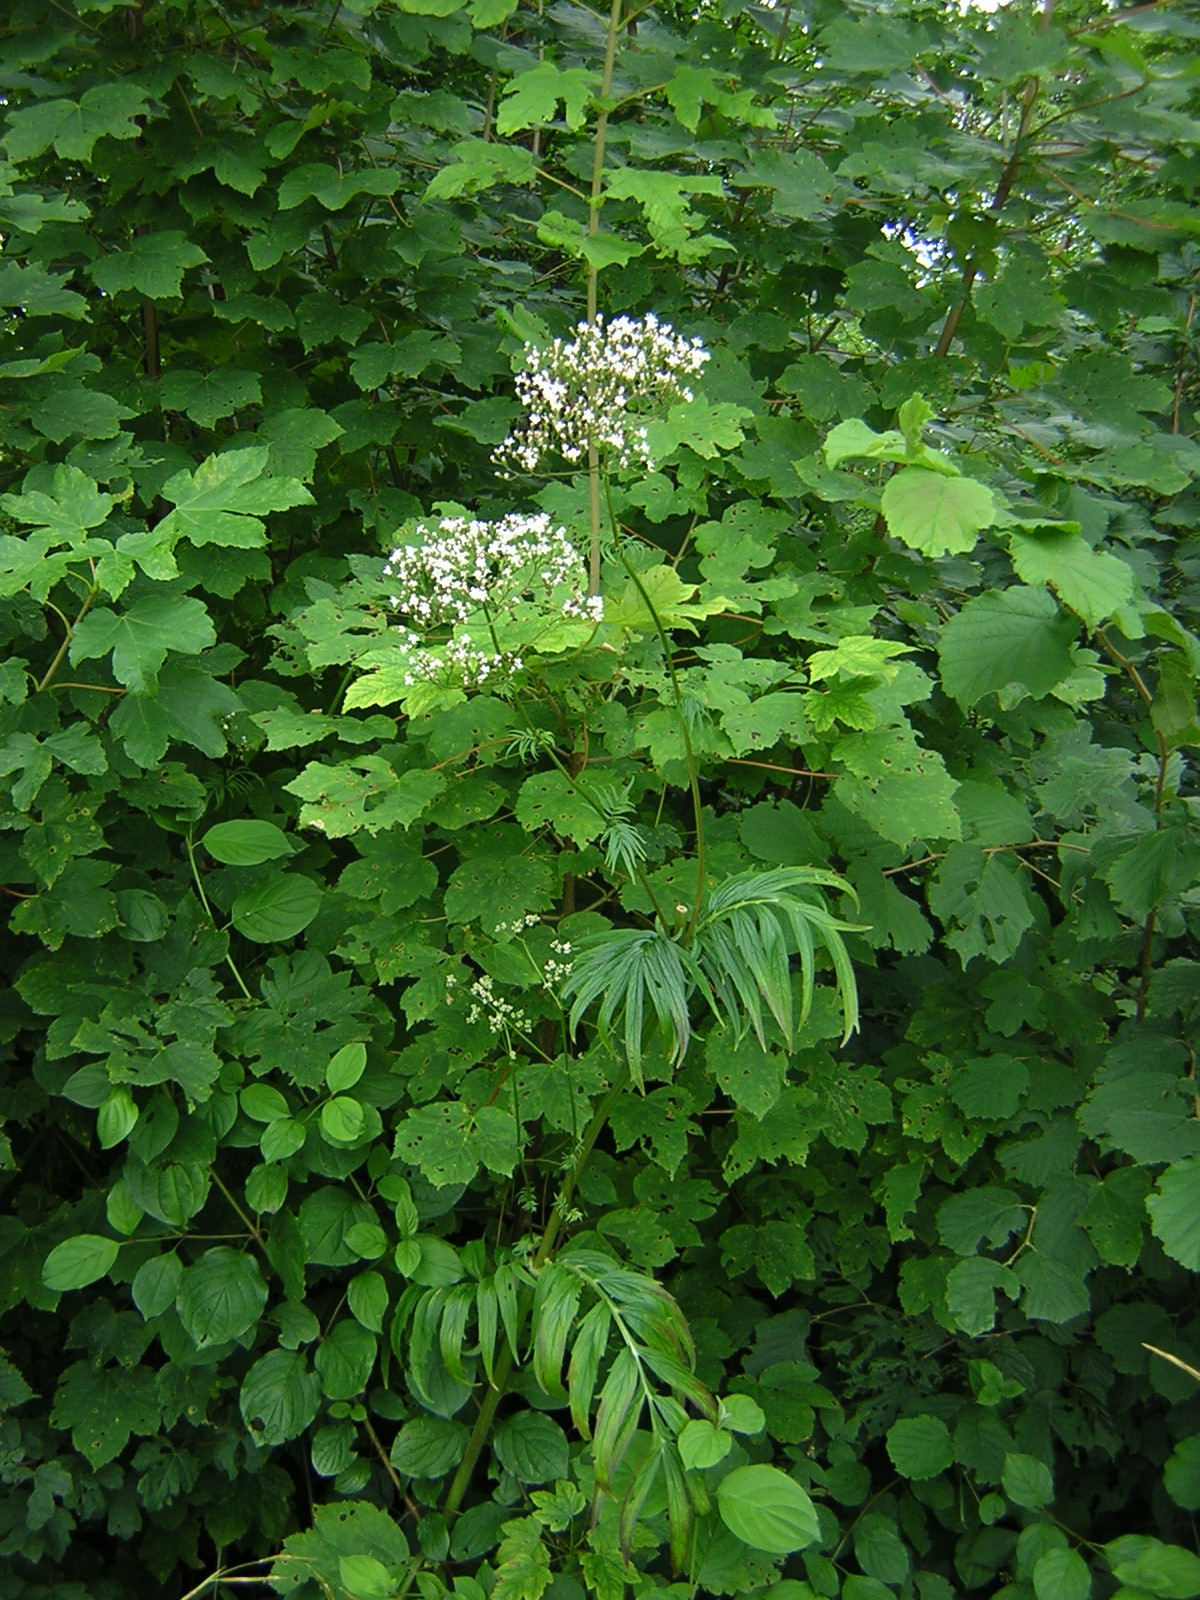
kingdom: Plantae
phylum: Tracheophyta
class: Magnoliopsida
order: Dipsacales
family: Caprifoliaceae
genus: Valeriana
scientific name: Valeriana officinalis
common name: Common valerian
